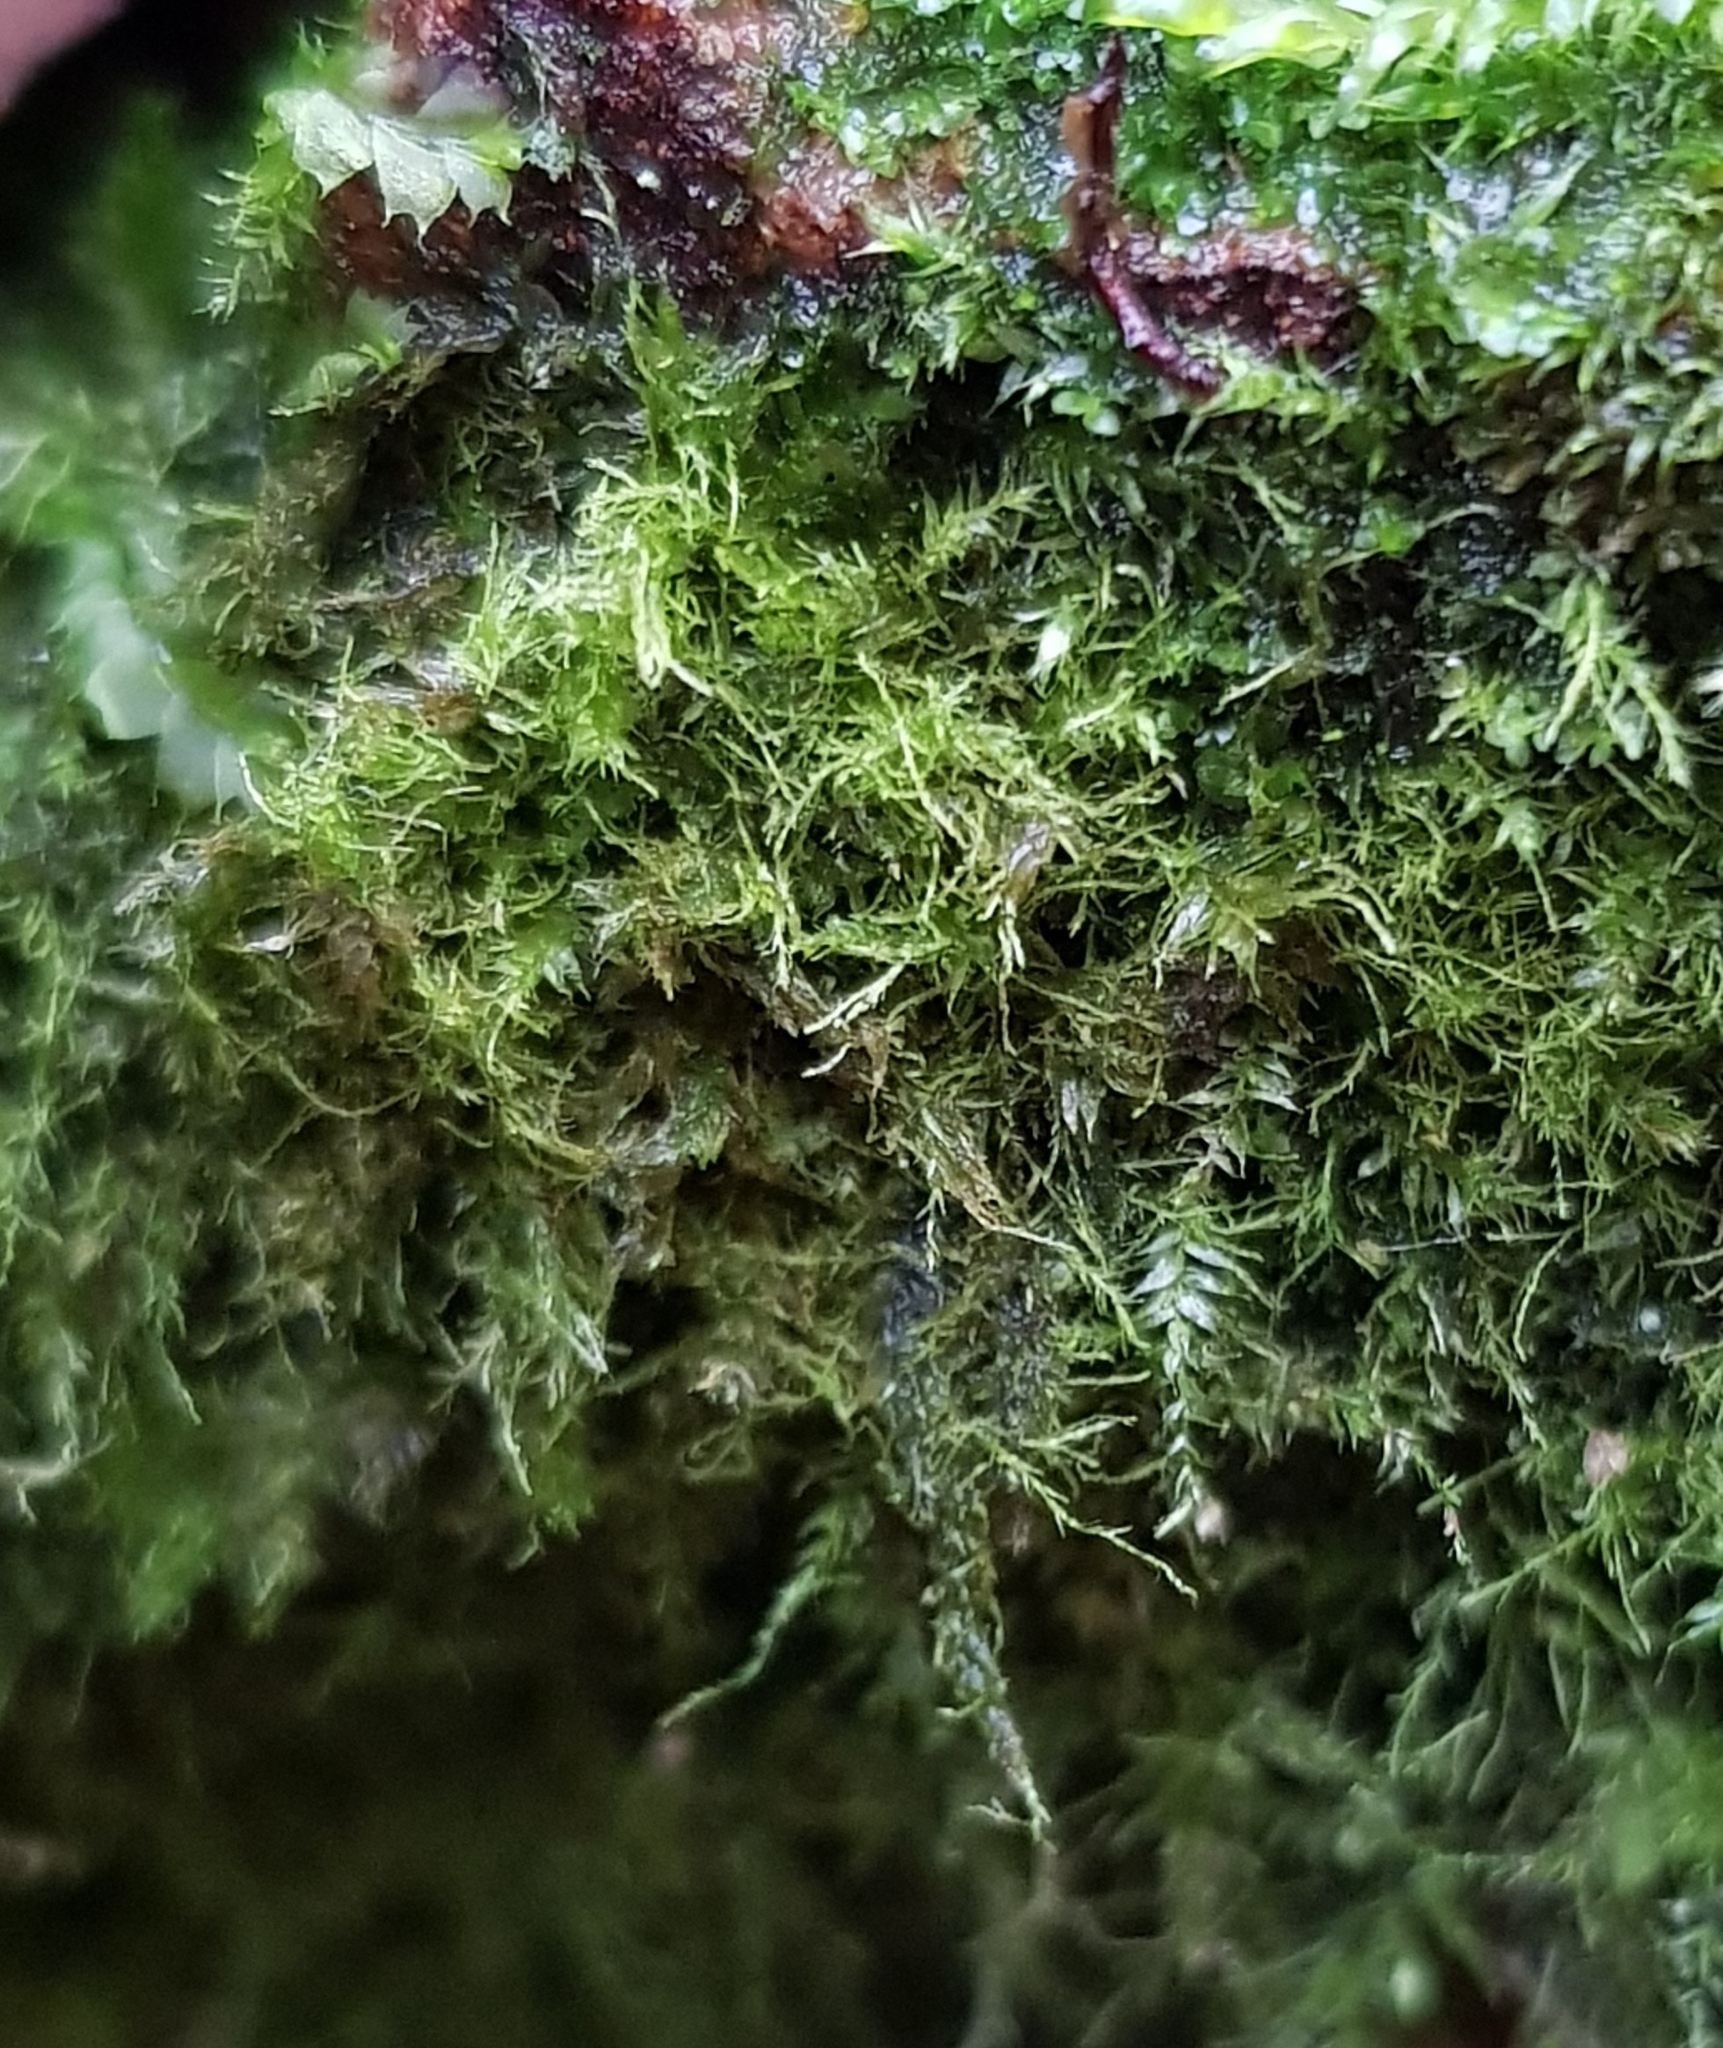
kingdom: Plantae
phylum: Bryophyta
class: Bryopsida
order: Hypnales
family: Plagiotheciaceae
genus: Pseudotaxiphyllum
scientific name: Pseudotaxiphyllum elegans
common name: Elegant silk moss
